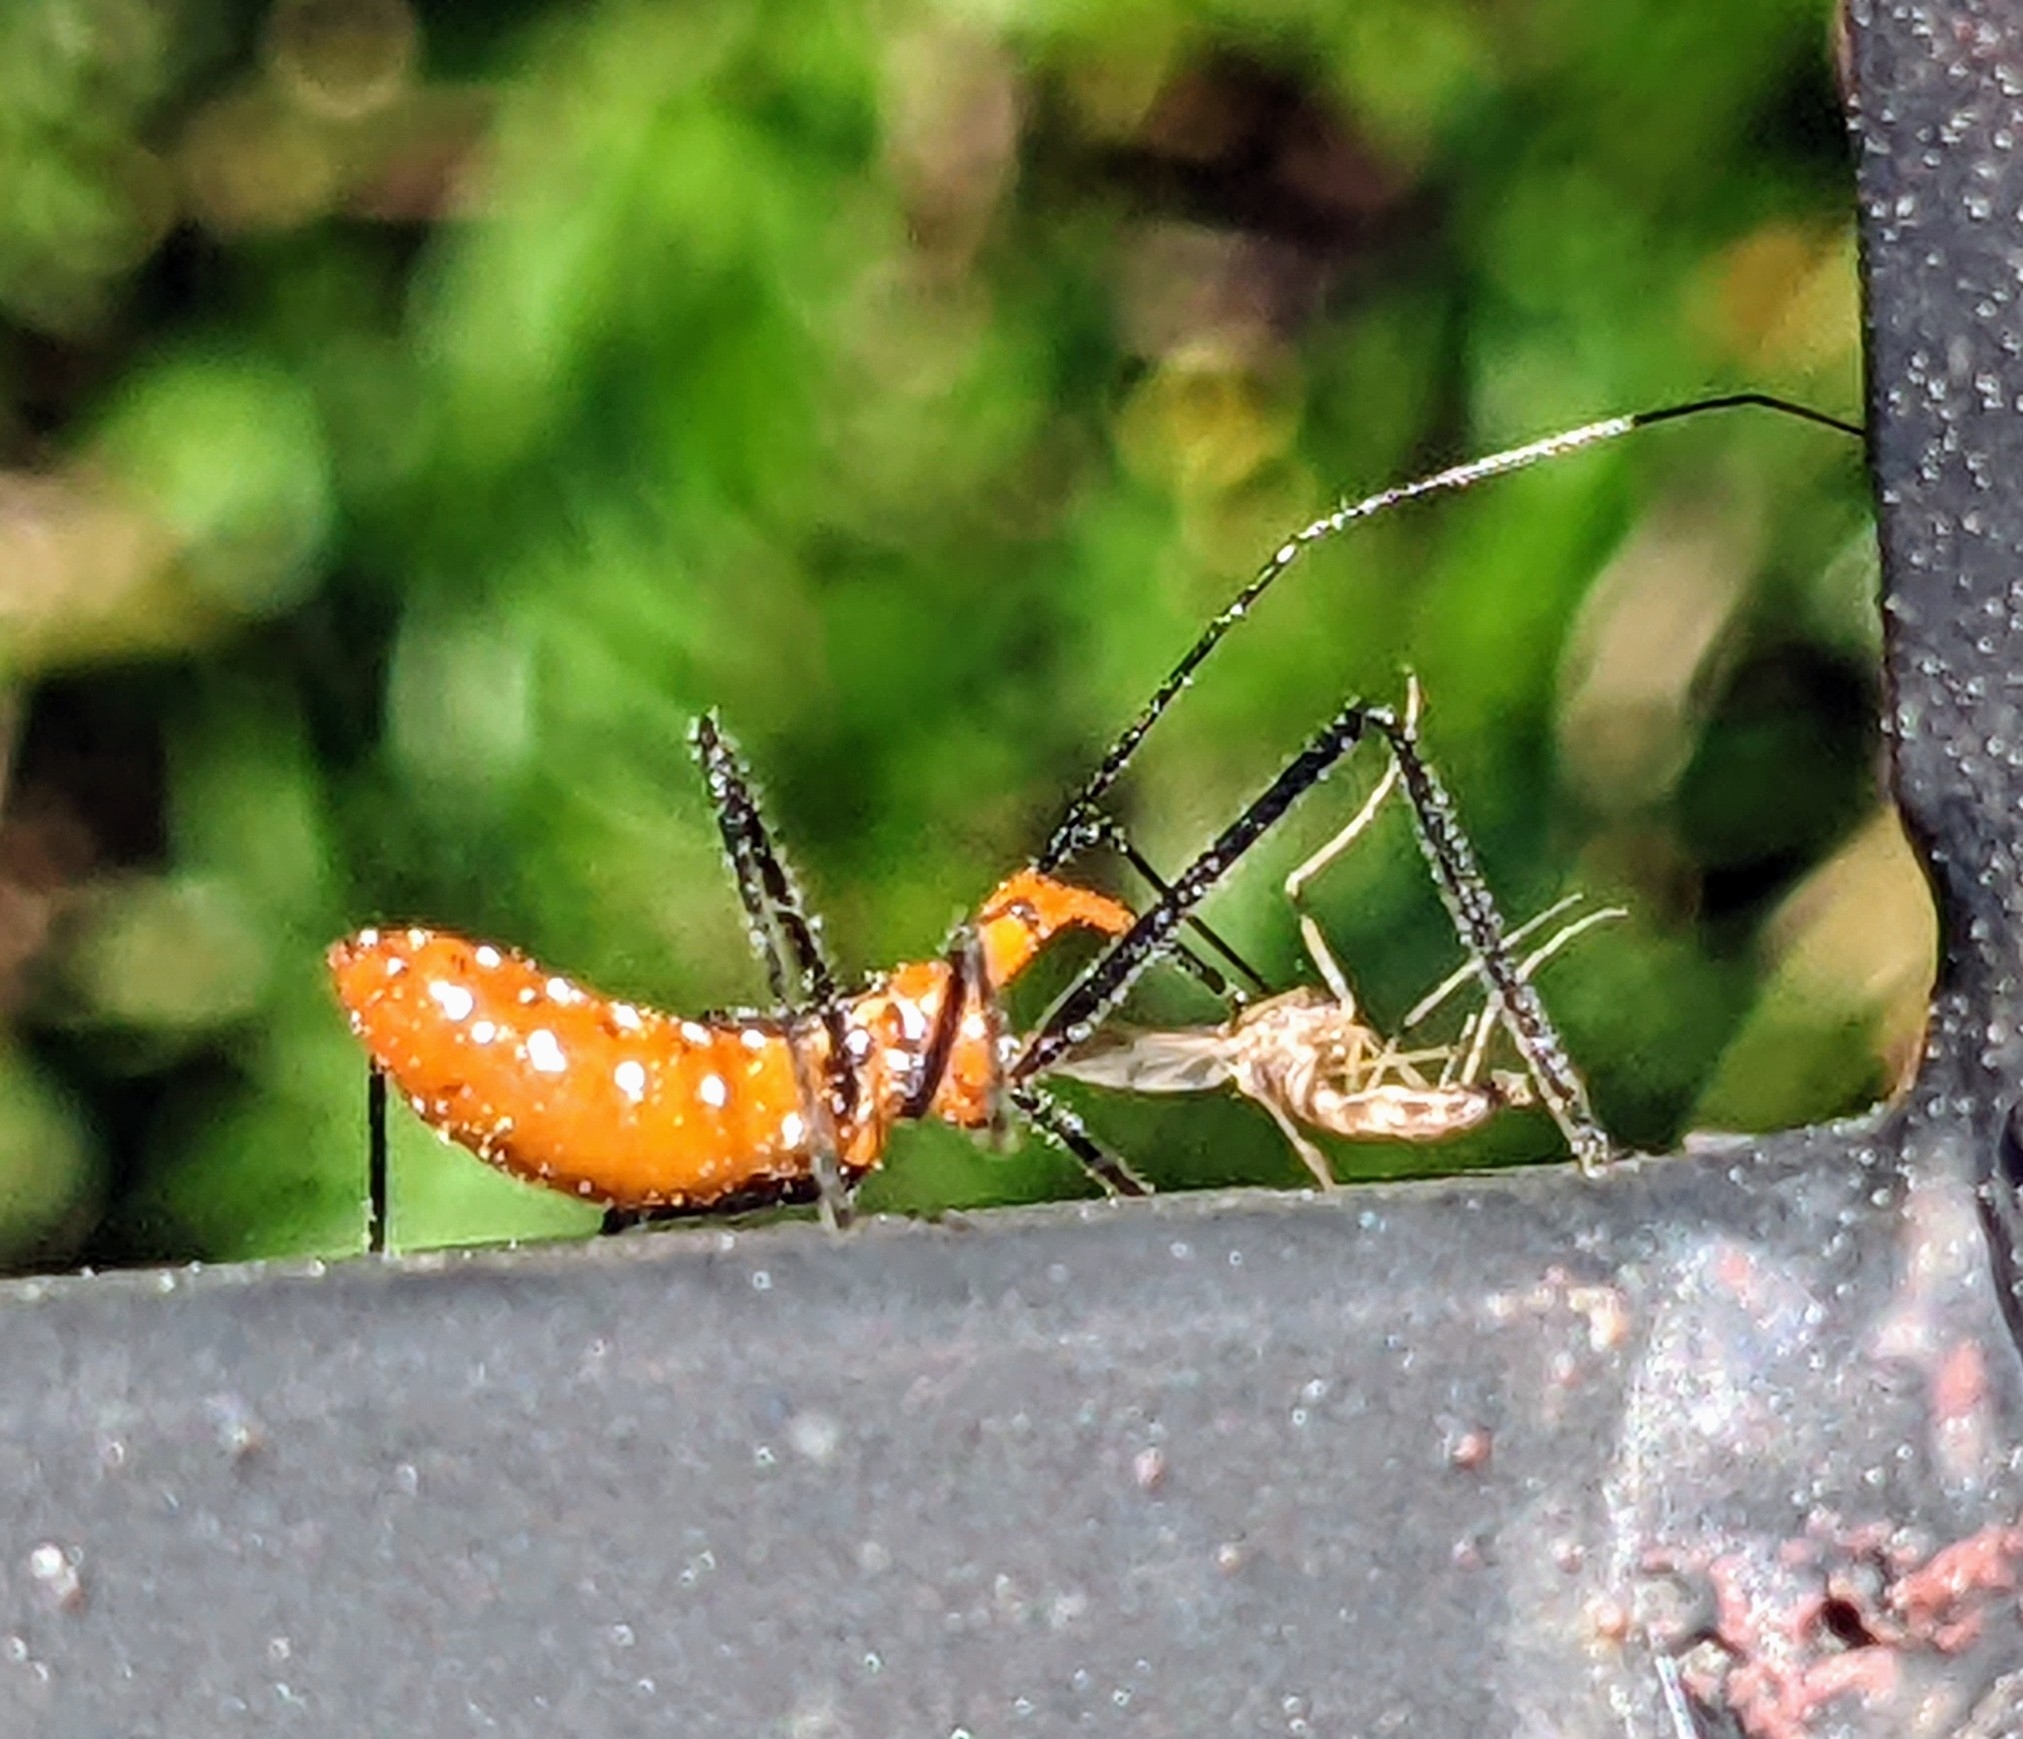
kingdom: Animalia
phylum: Arthropoda
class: Insecta
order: Hemiptera
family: Reduviidae
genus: Zelus
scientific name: Zelus longipes
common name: Milkweed assassin bug
